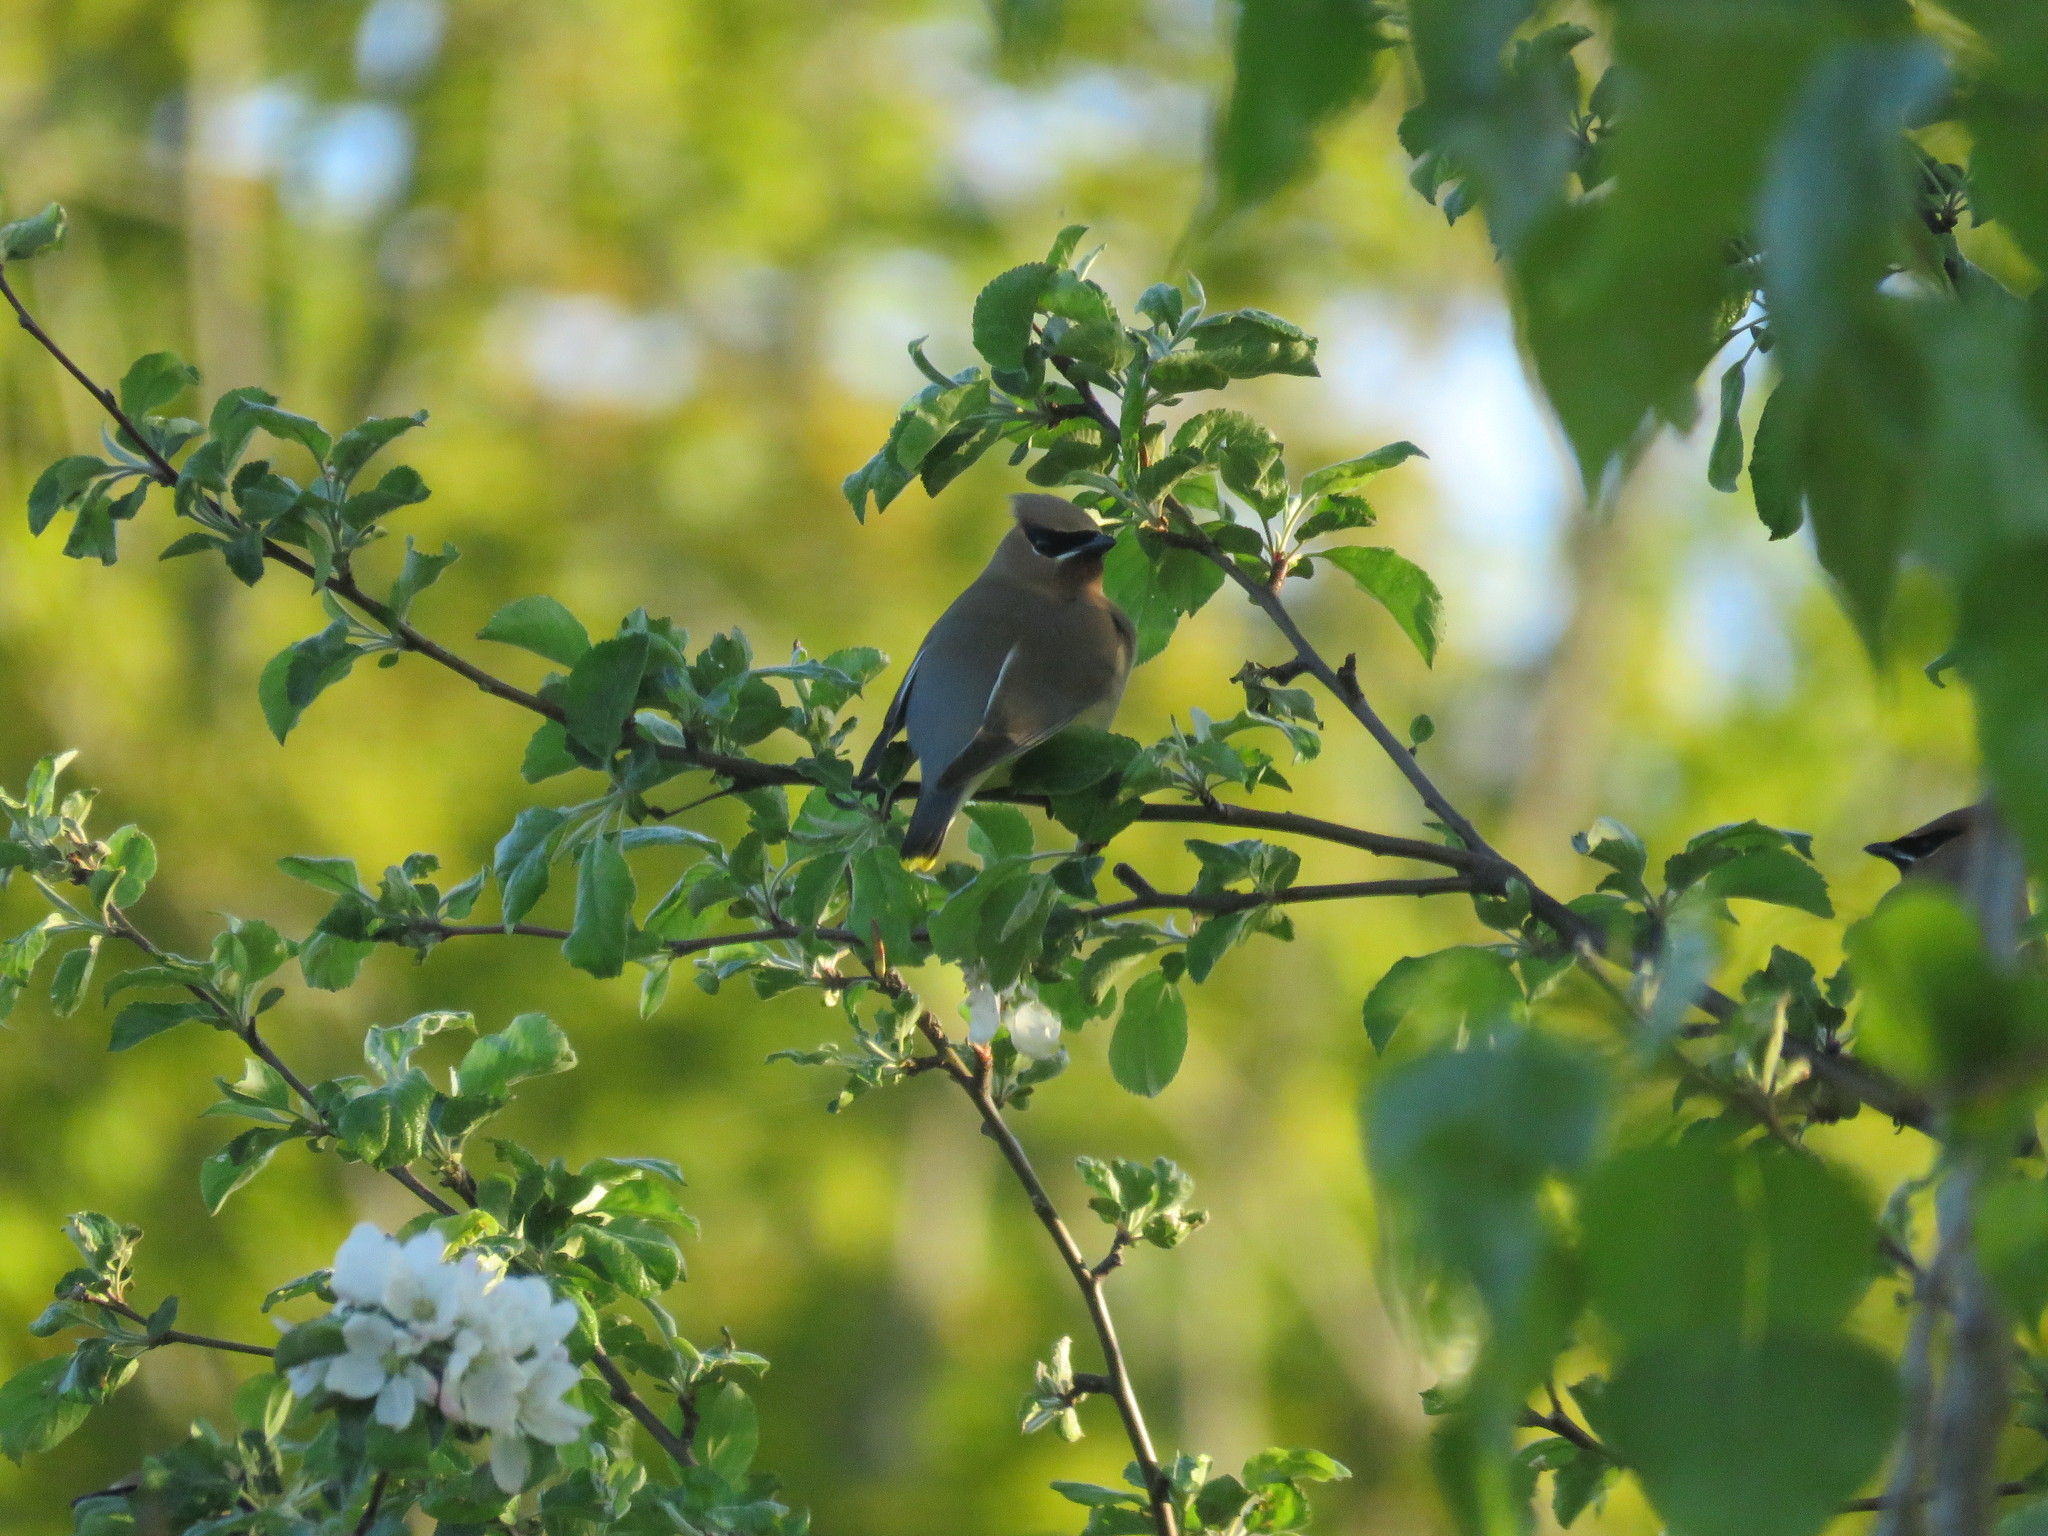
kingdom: Animalia
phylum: Chordata
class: Aves
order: Passeriformes
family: Bombycillidae
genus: Bombycilla
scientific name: Bombycilla cedrorum
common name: Cedar waxwing
